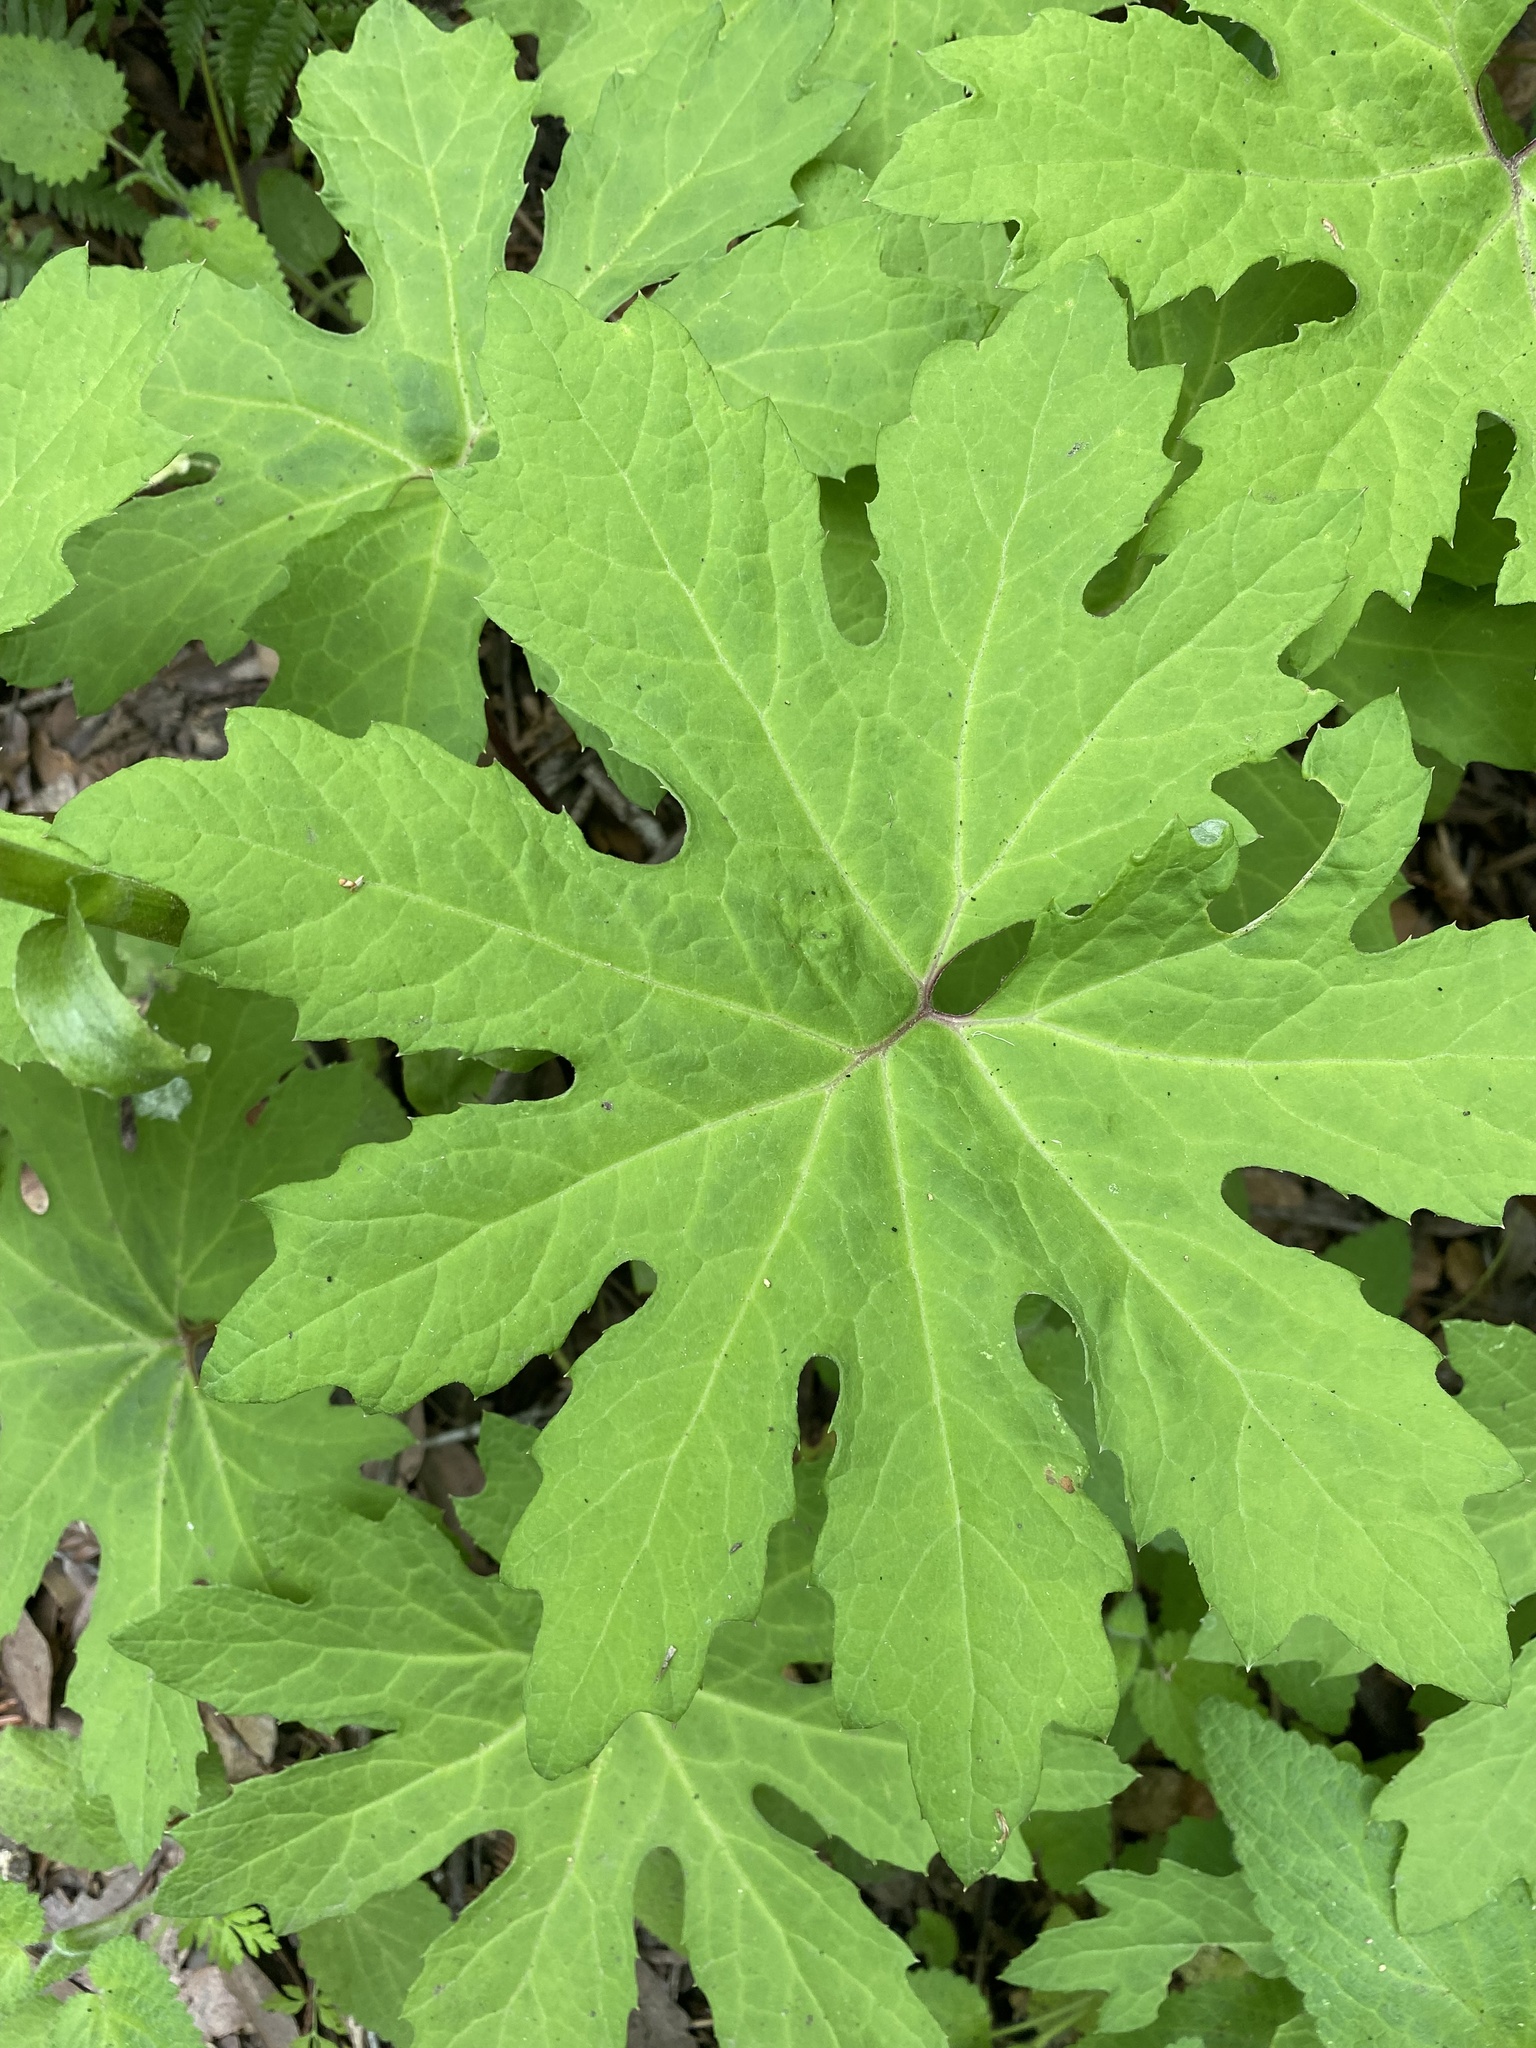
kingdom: Plantae
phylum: Tracheophyta
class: Magnoliopsida
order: Asterales
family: Asteraceae
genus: Petasites
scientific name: Petasites frigidus
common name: Arctic butterbur
